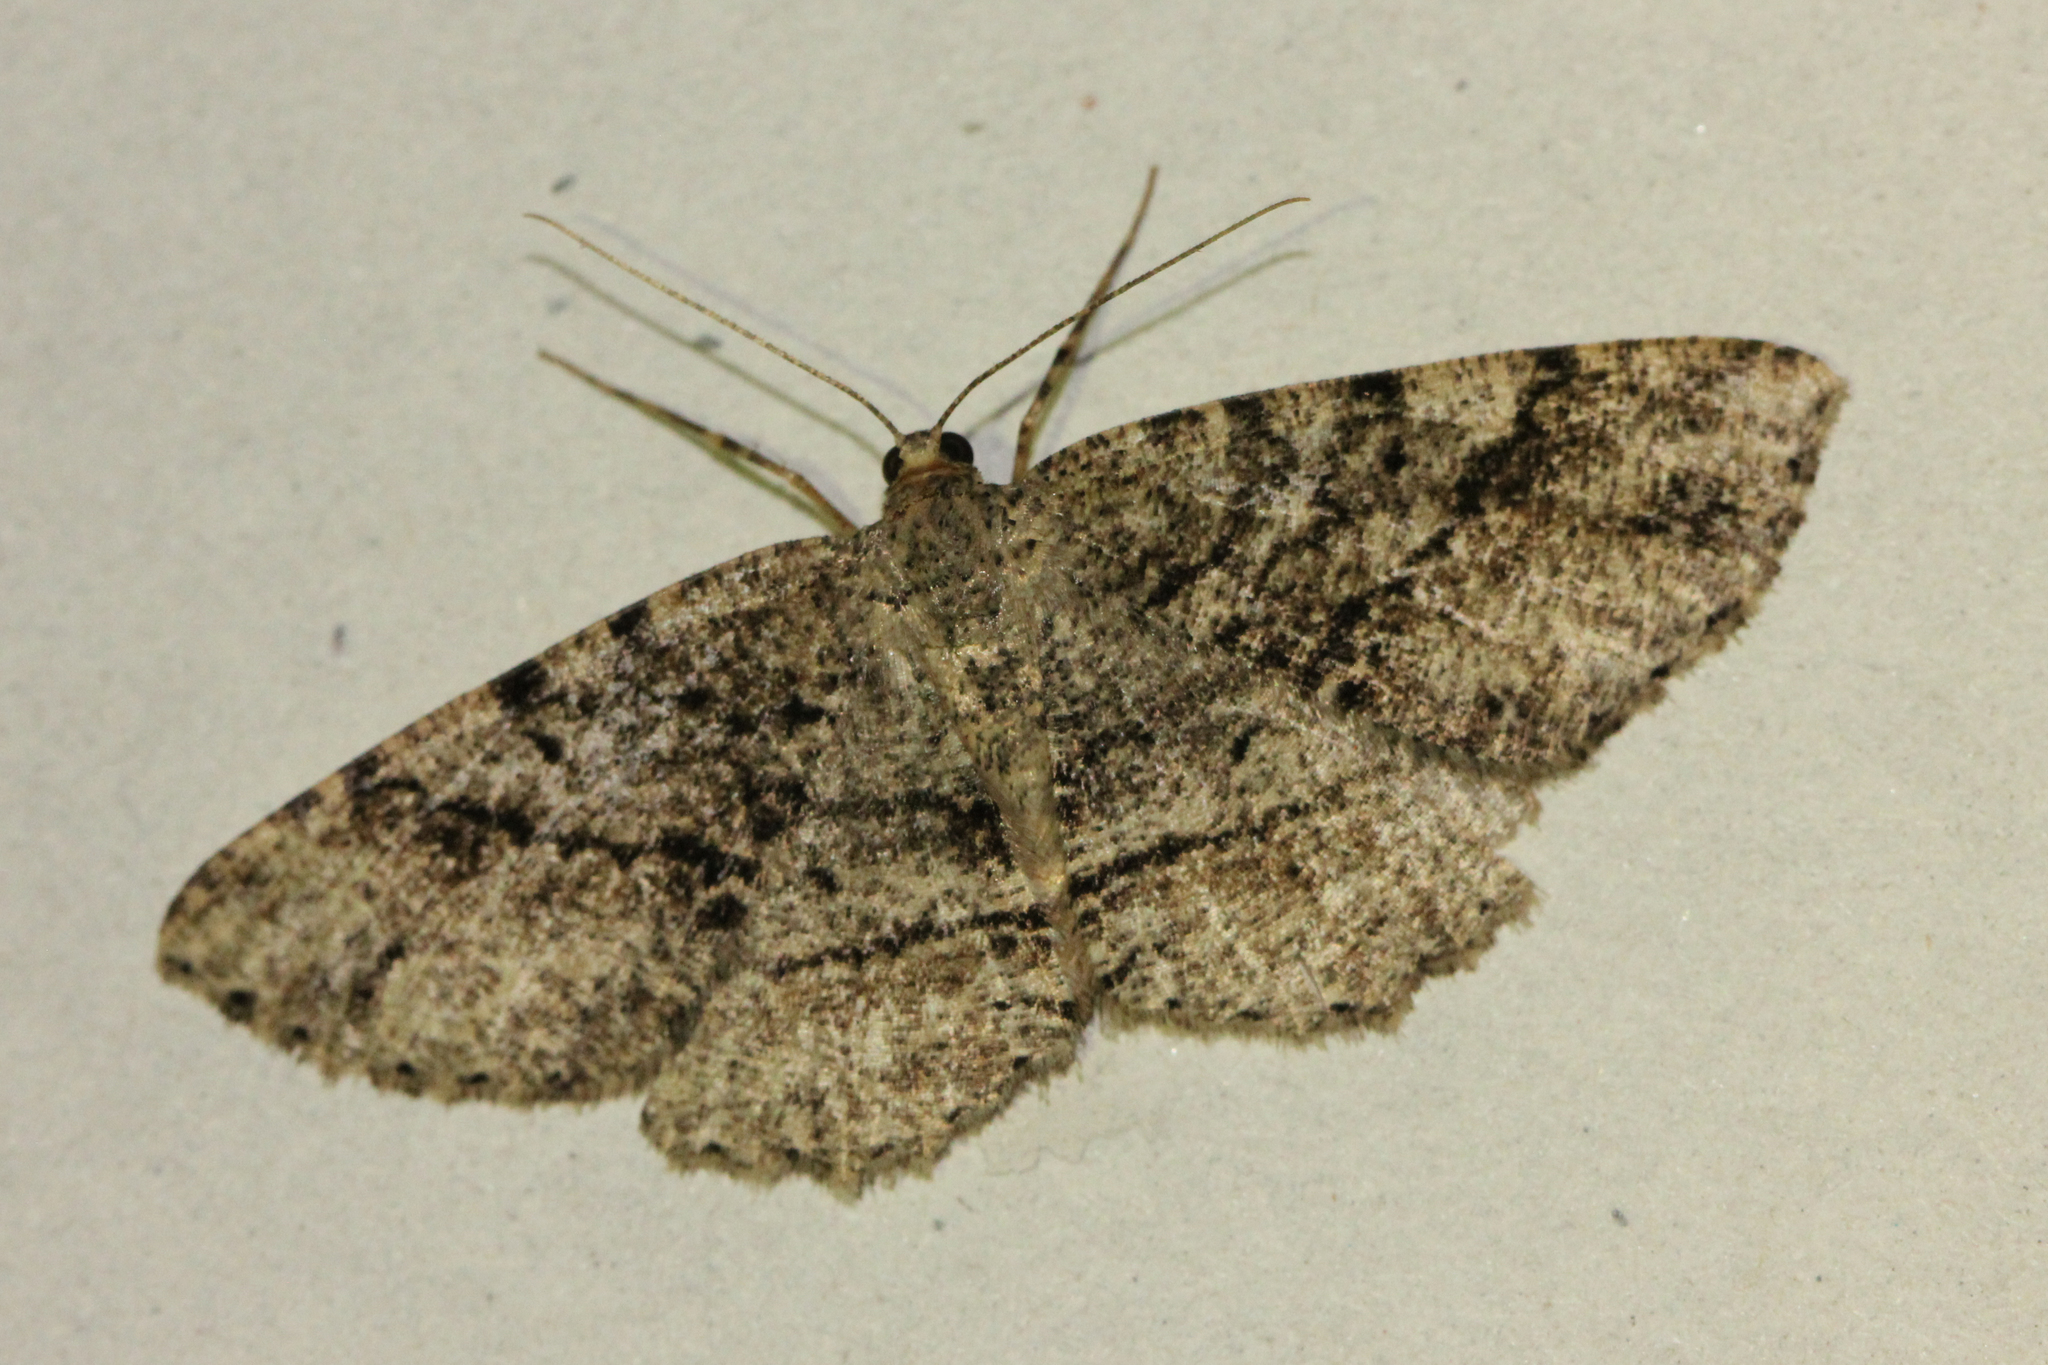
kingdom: Animalia
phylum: Arthropoda
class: Insecta
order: Lepidoptera
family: Geometridae
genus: Melanolophia
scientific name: Melanolophia canadaria
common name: Canadian melanolophia
